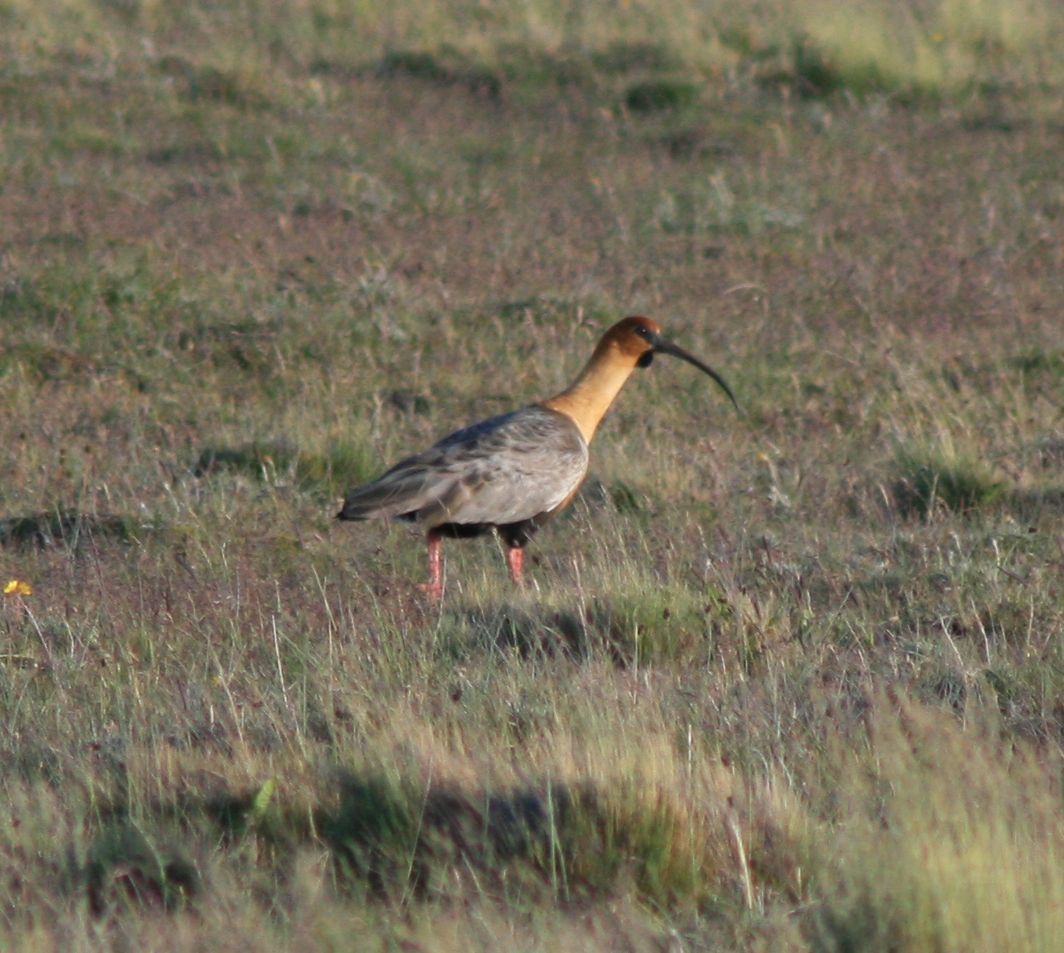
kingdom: Animalia
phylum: Chordata
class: Aves
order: Pelecaniformes
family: Threskiornithidae
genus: Theristicus
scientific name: Theristicus melanopis
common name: Black-faced ibis
